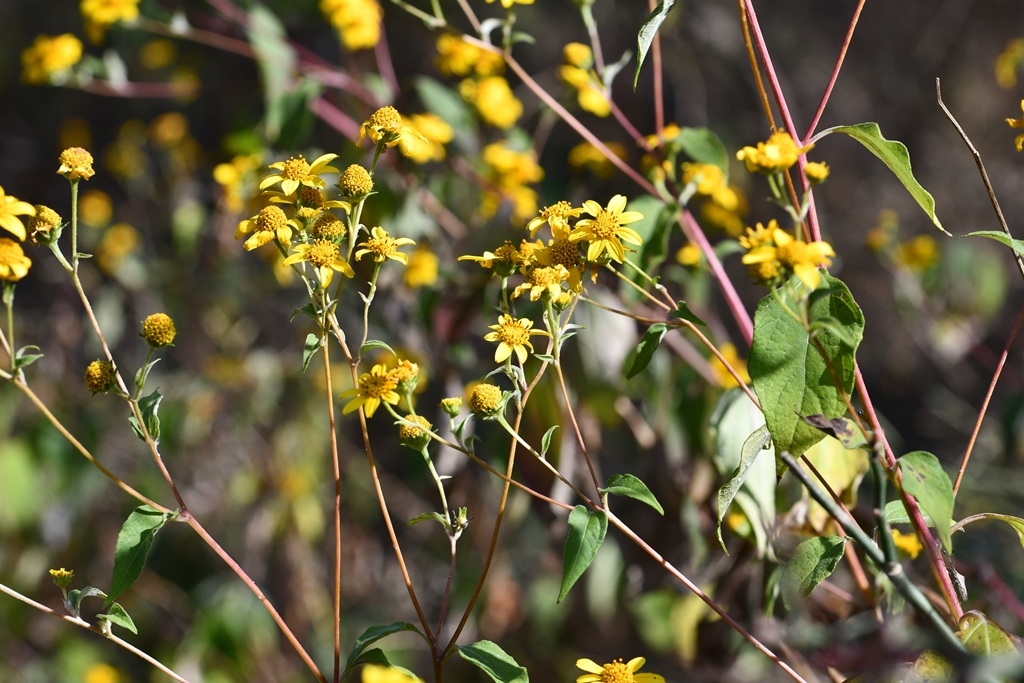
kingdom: Plantae
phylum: Tracheophyta
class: Magnoliopsida
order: Asterales
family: Asteraceae
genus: Verbesina
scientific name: Verbesina hypoglauca
